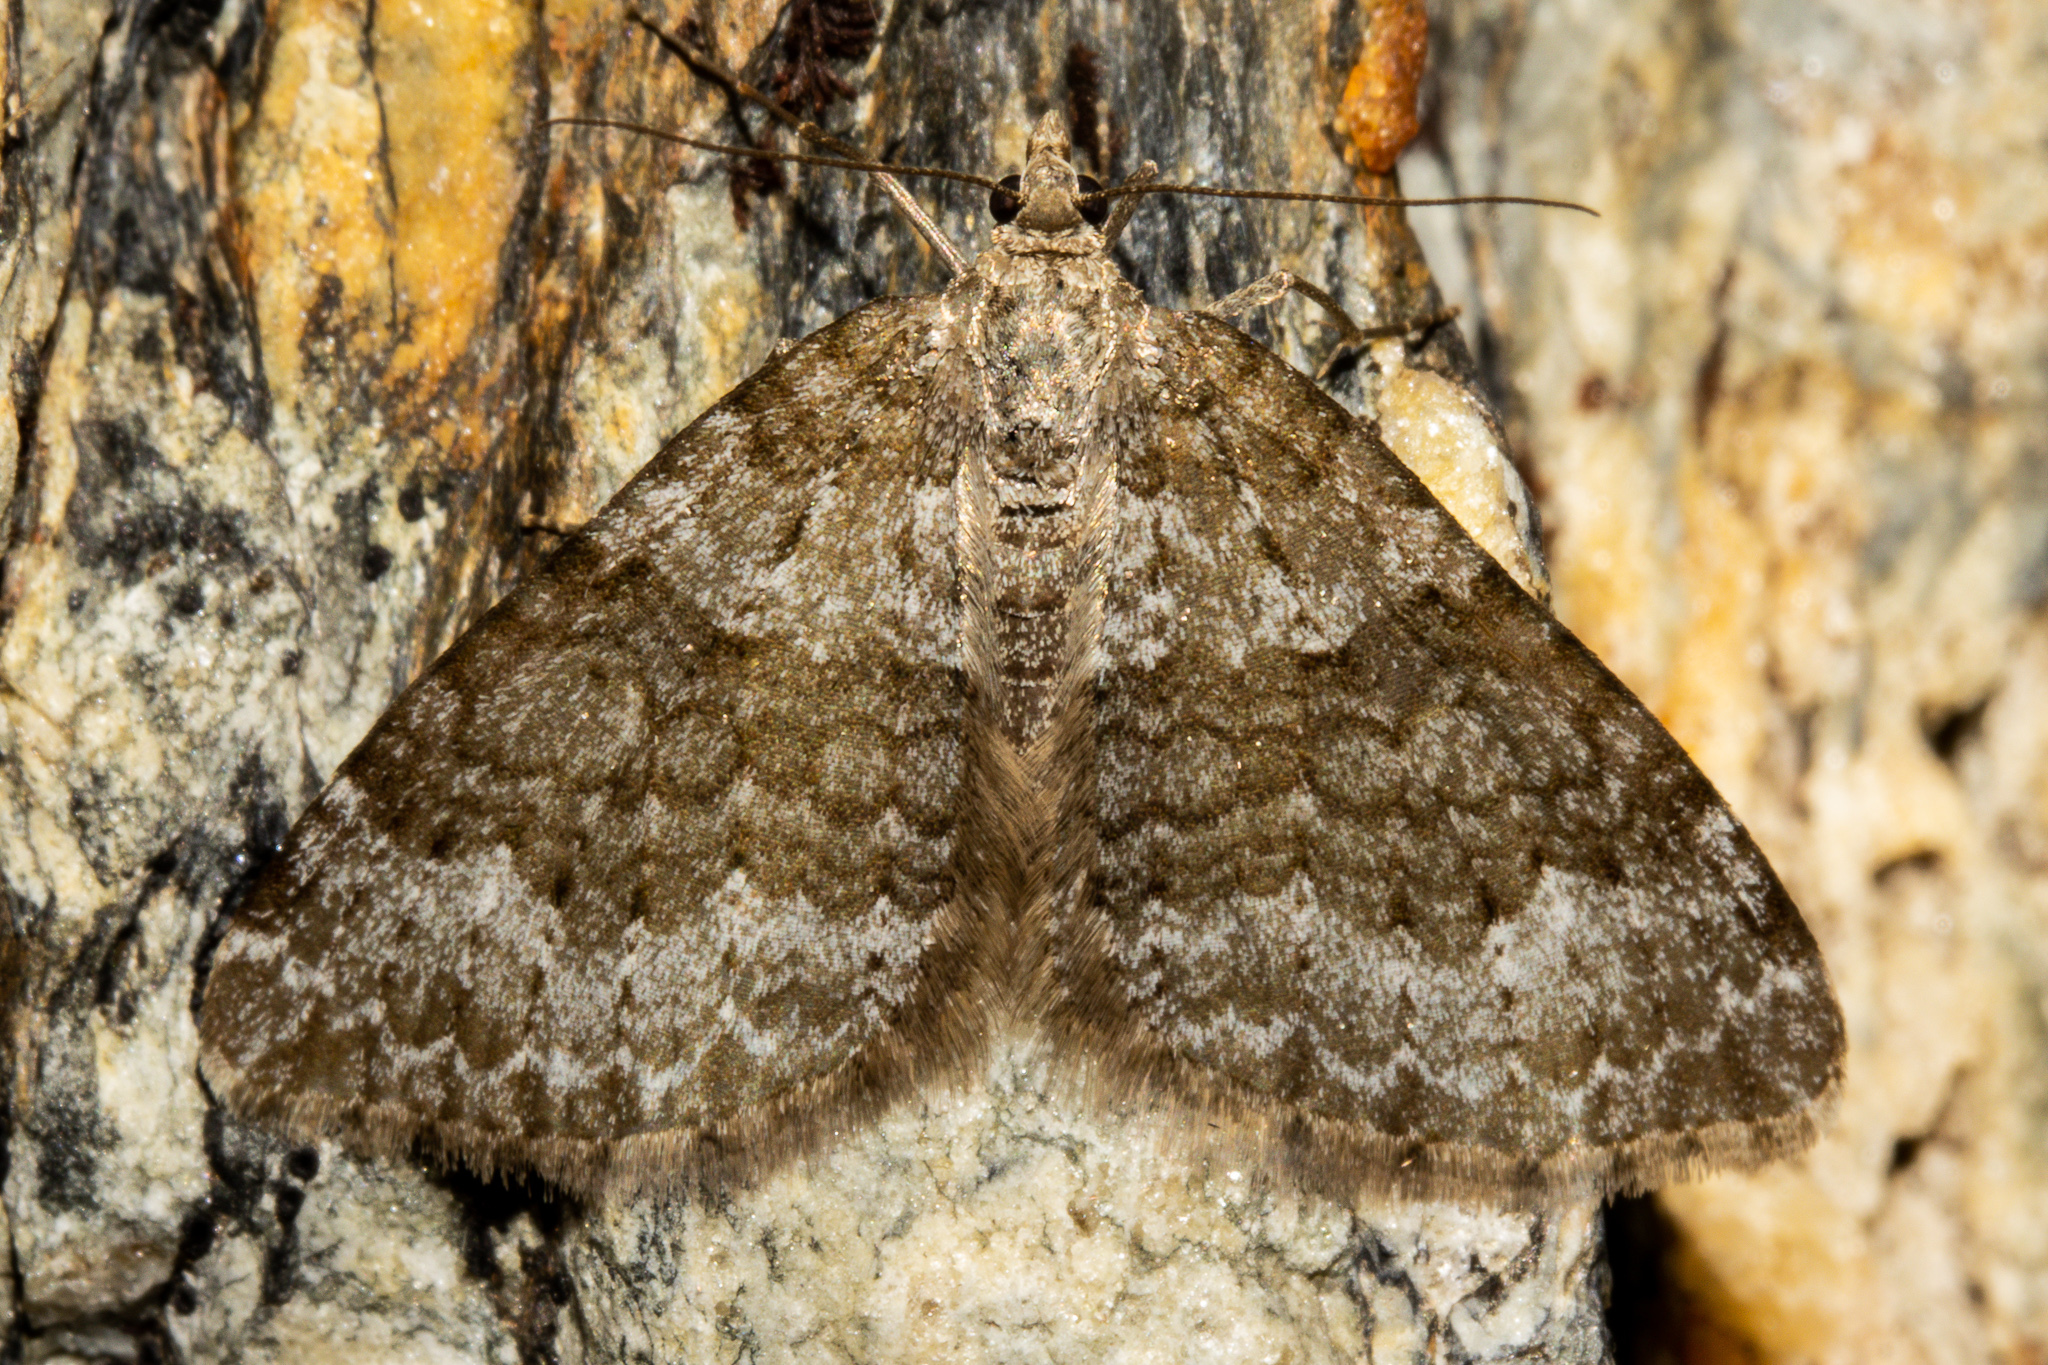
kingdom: Animalia
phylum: Arthropoda
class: Insecta
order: Lepidoptera
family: Geometridae
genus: Xanthorhoe
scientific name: Xanthorhoe frigida
